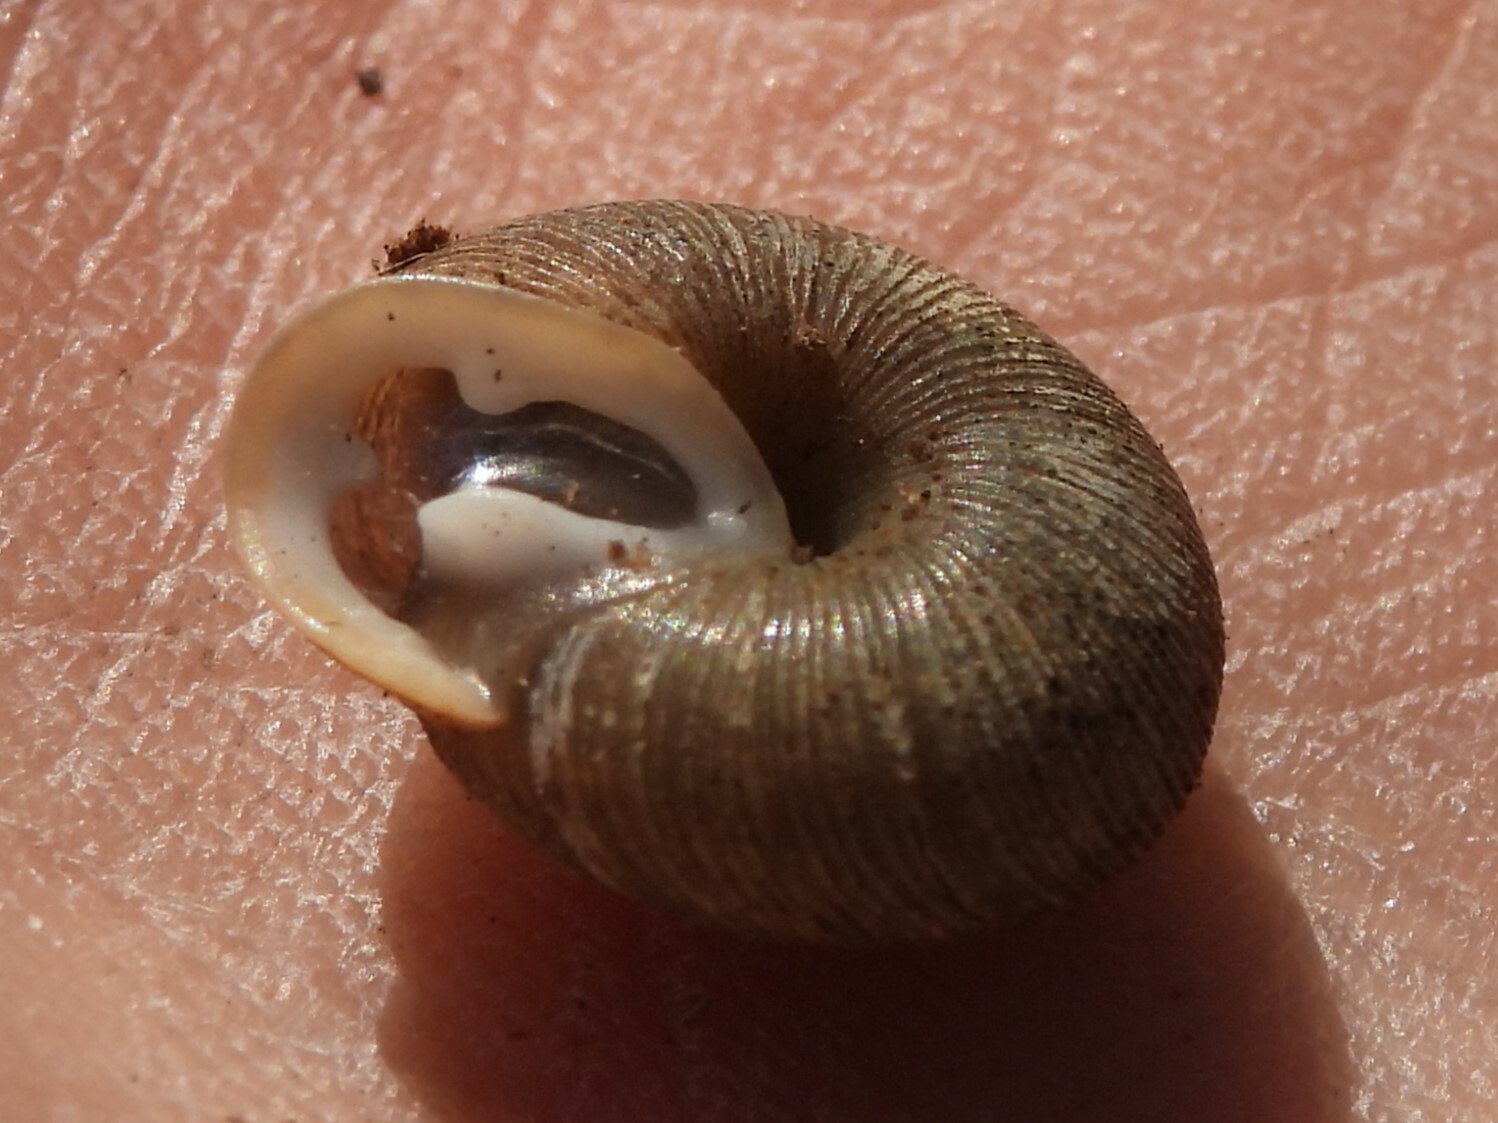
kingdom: Animalia
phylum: Mollusca
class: Gastropoda
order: Stylommatophora
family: Polygyridae
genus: Triodopsis
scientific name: Triodopsis hopetonensis
